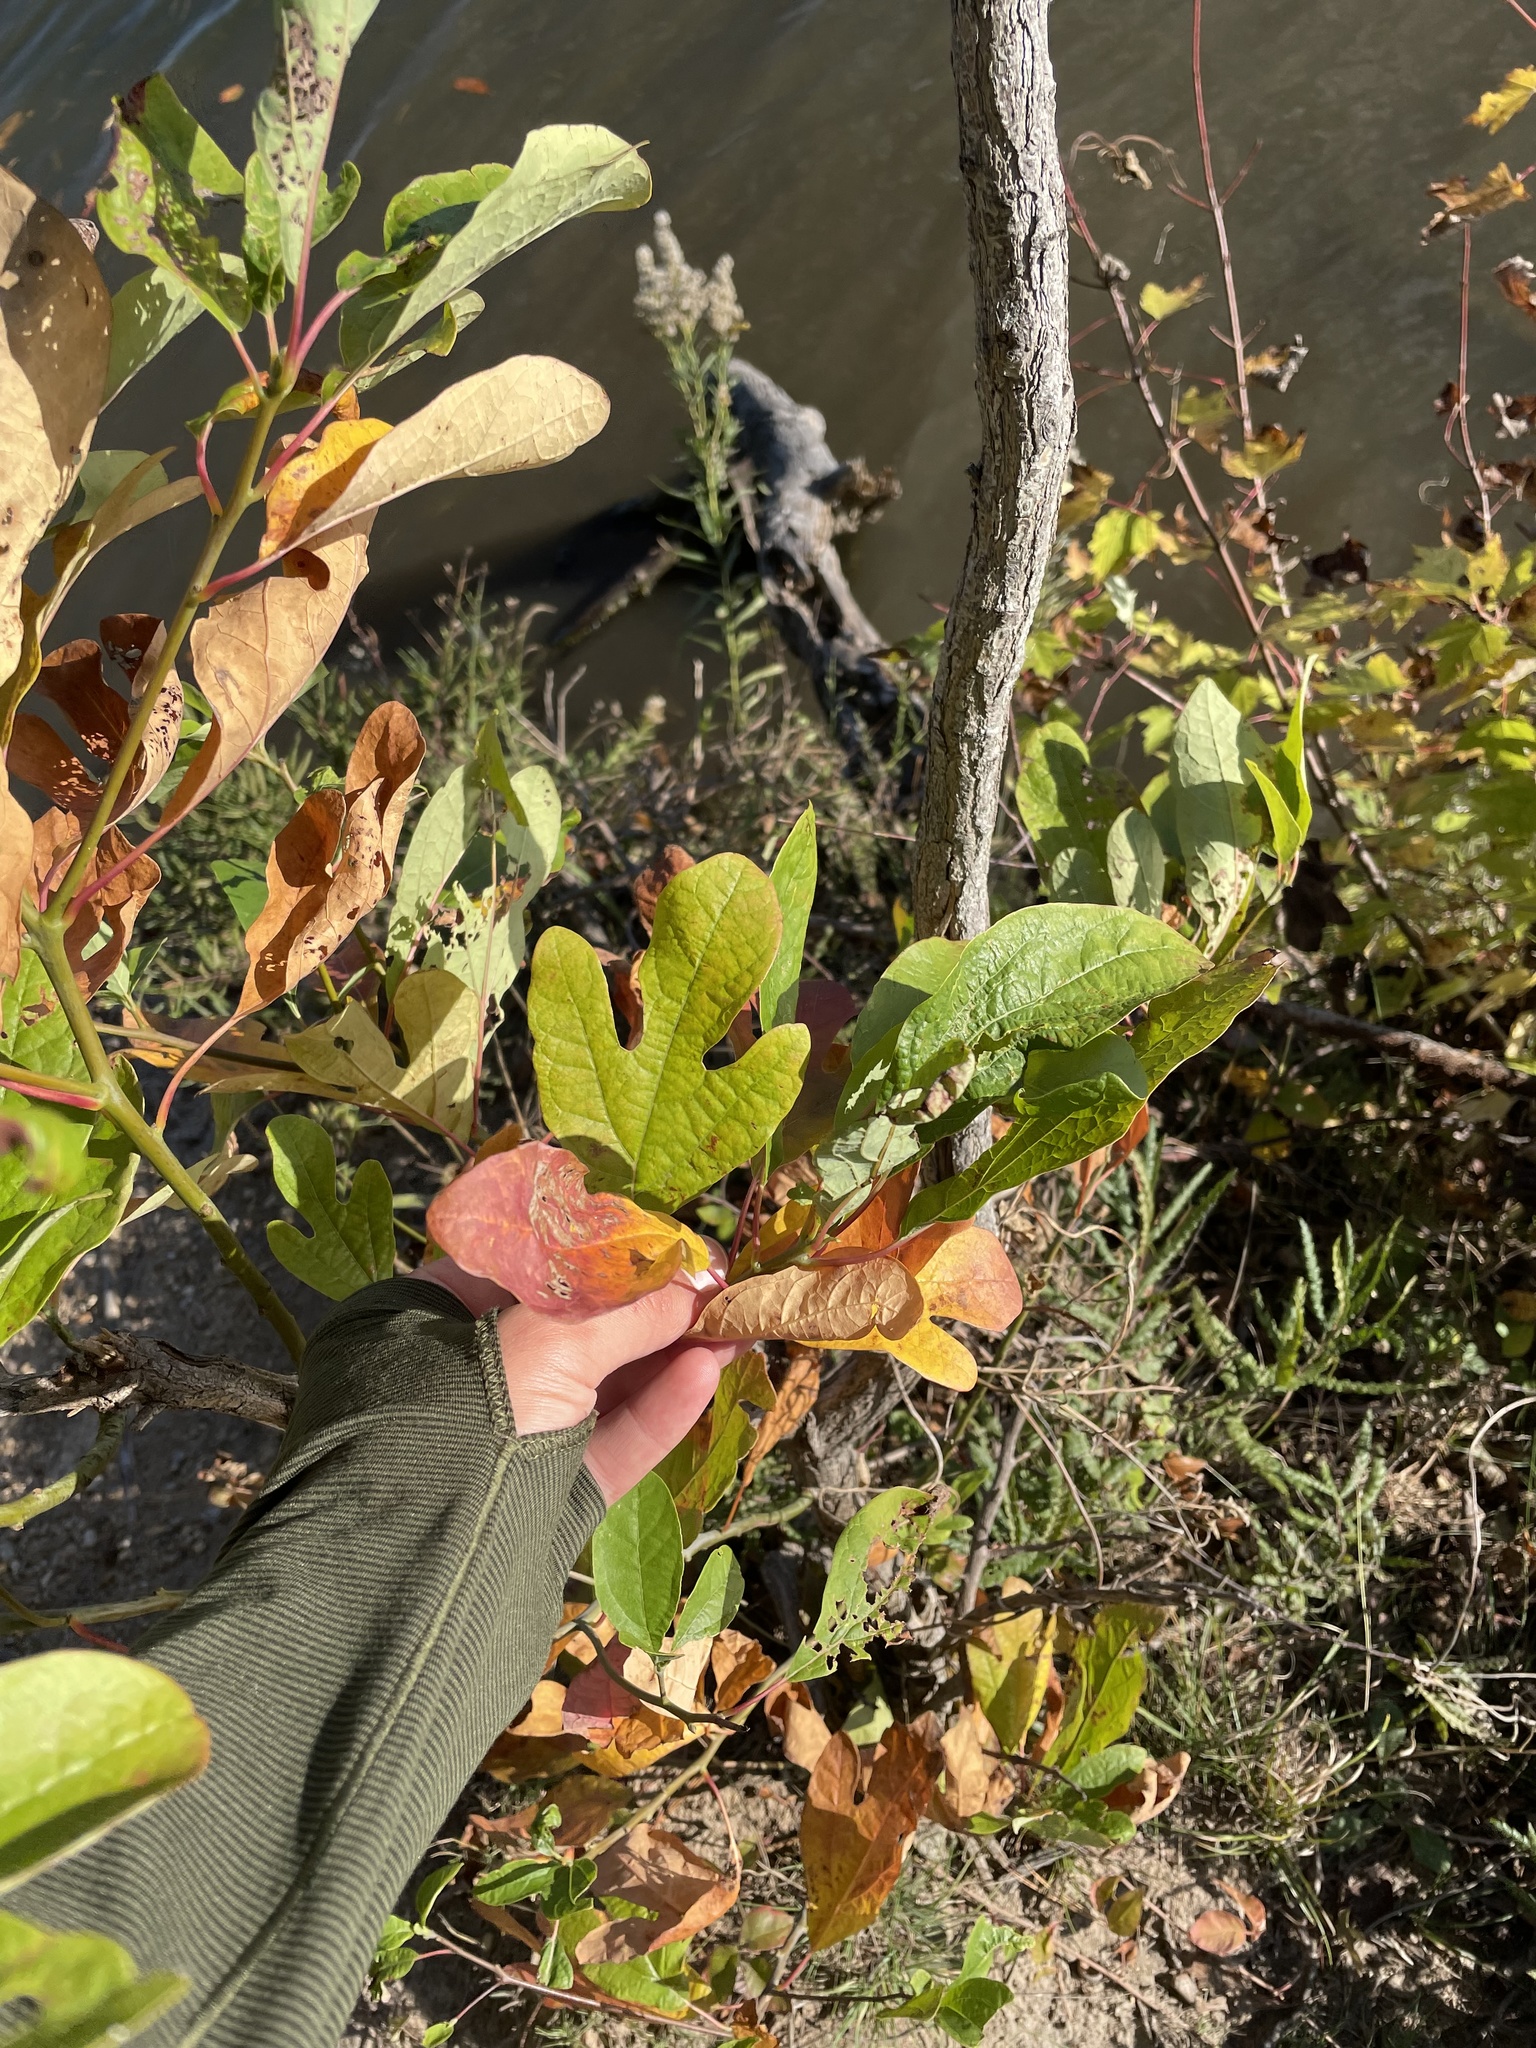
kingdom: Plantae
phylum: Tracheophyta
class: Magnoliopsida
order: Laurales
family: Lauraceae
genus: Sassafras
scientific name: Sassafras albidum
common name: Sassafras
